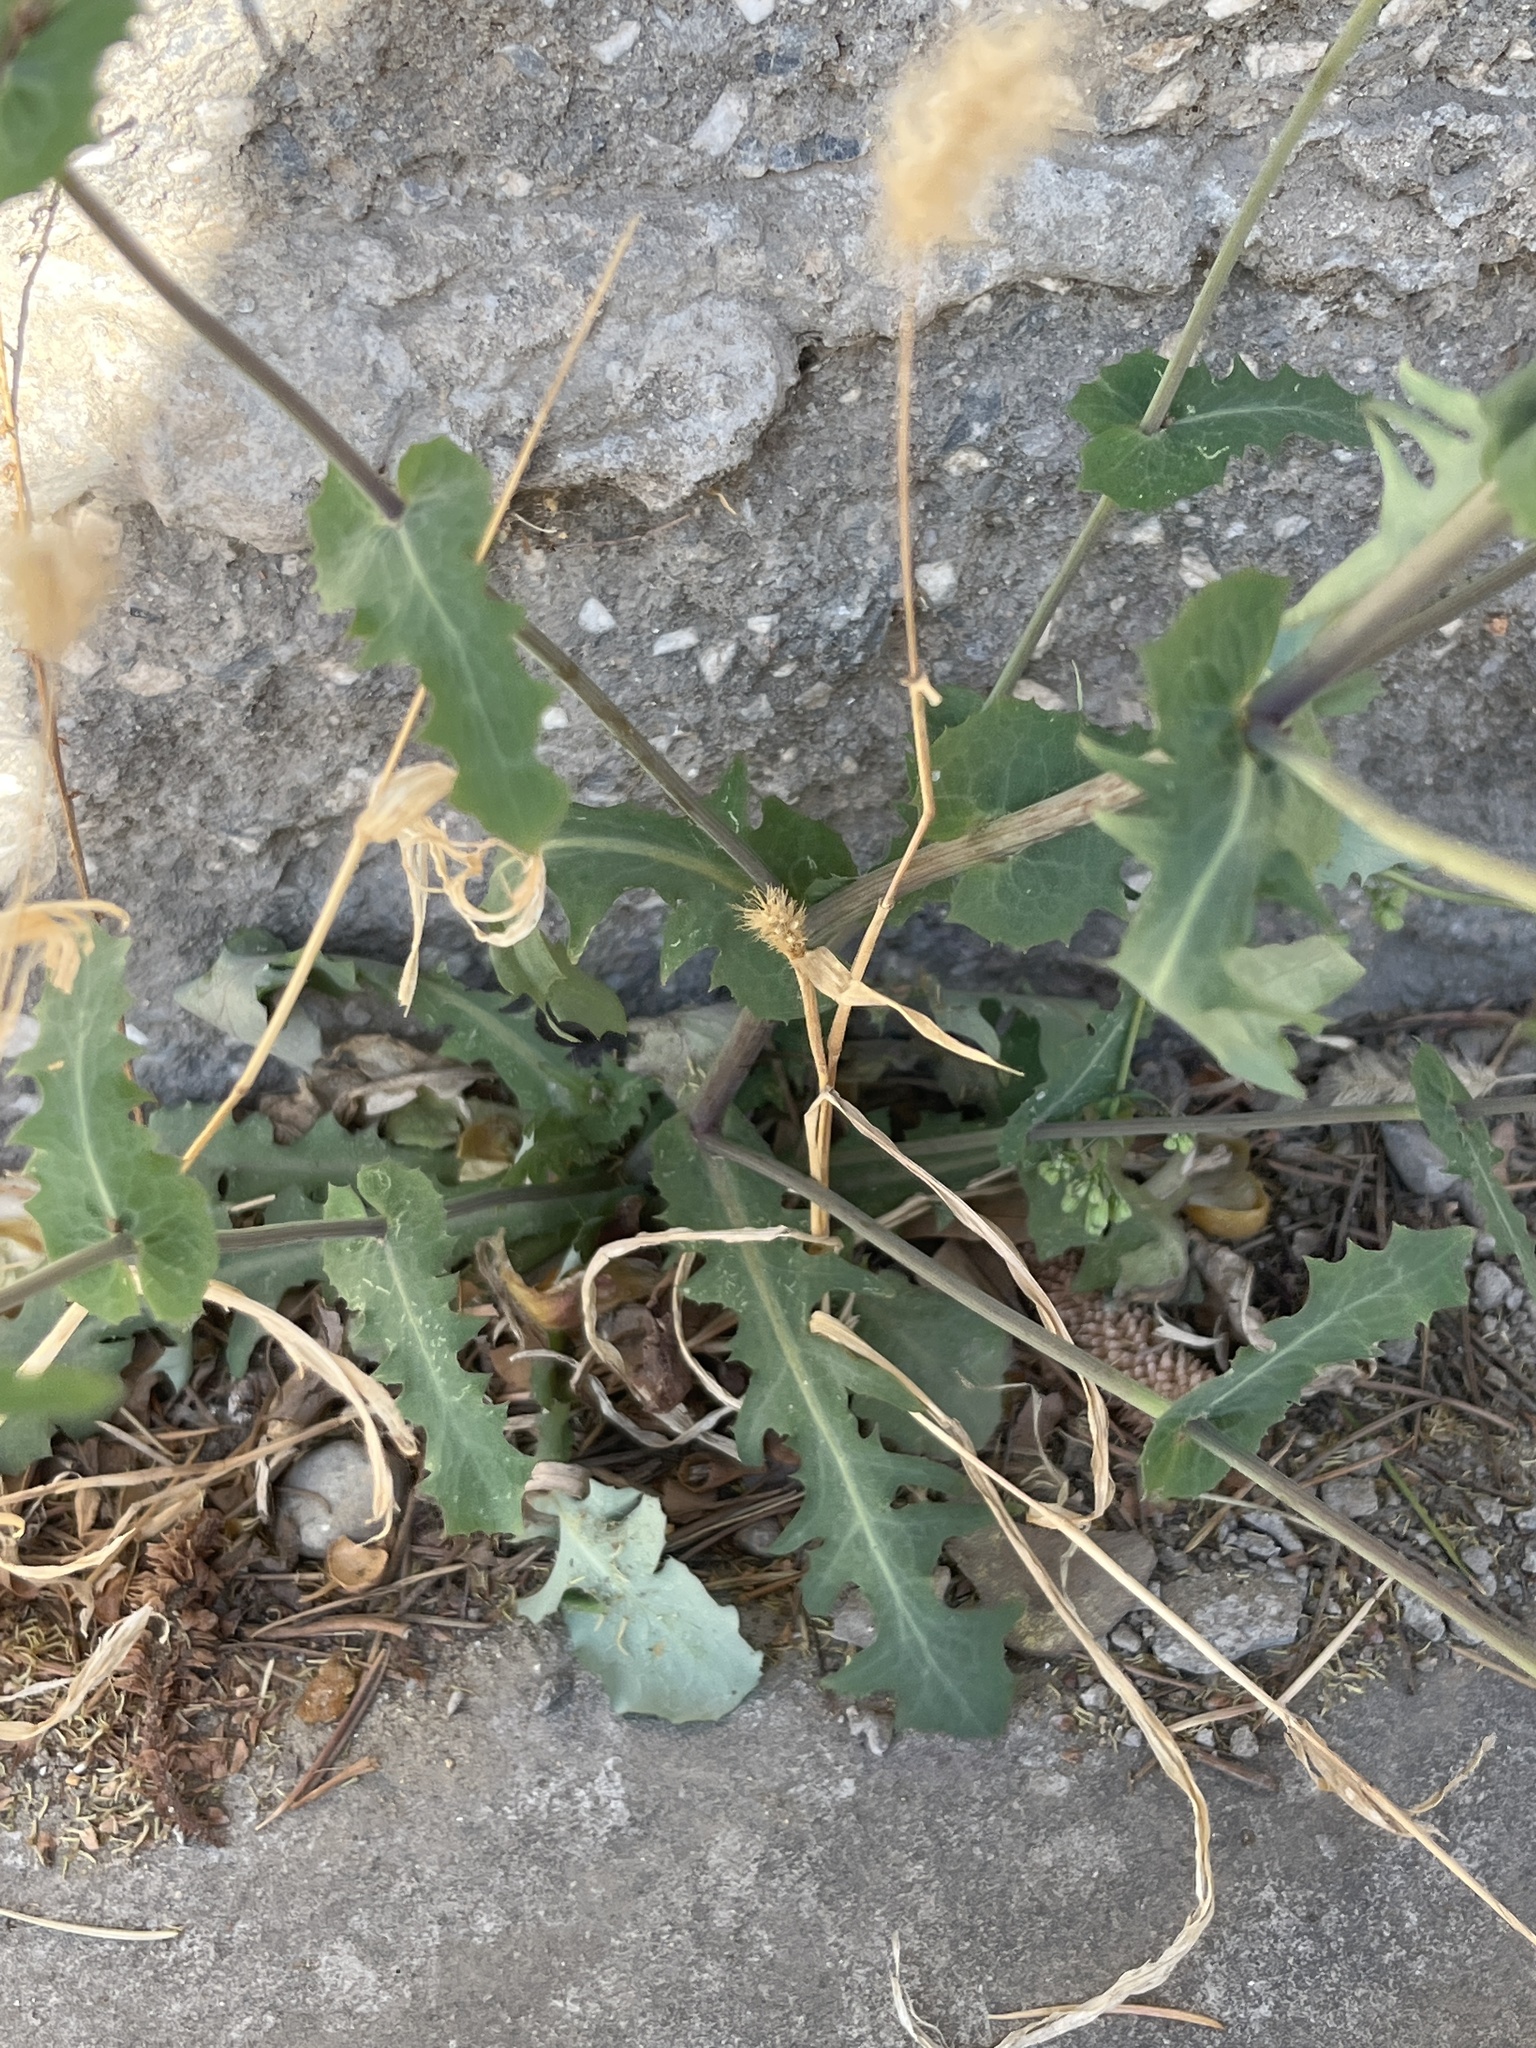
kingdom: Plantae
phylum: Tracheophyta
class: Magnoliopsida
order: Asterales
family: Asteraceae
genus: Crepidiastrum
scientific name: Crepidiastrum sonchifolium
